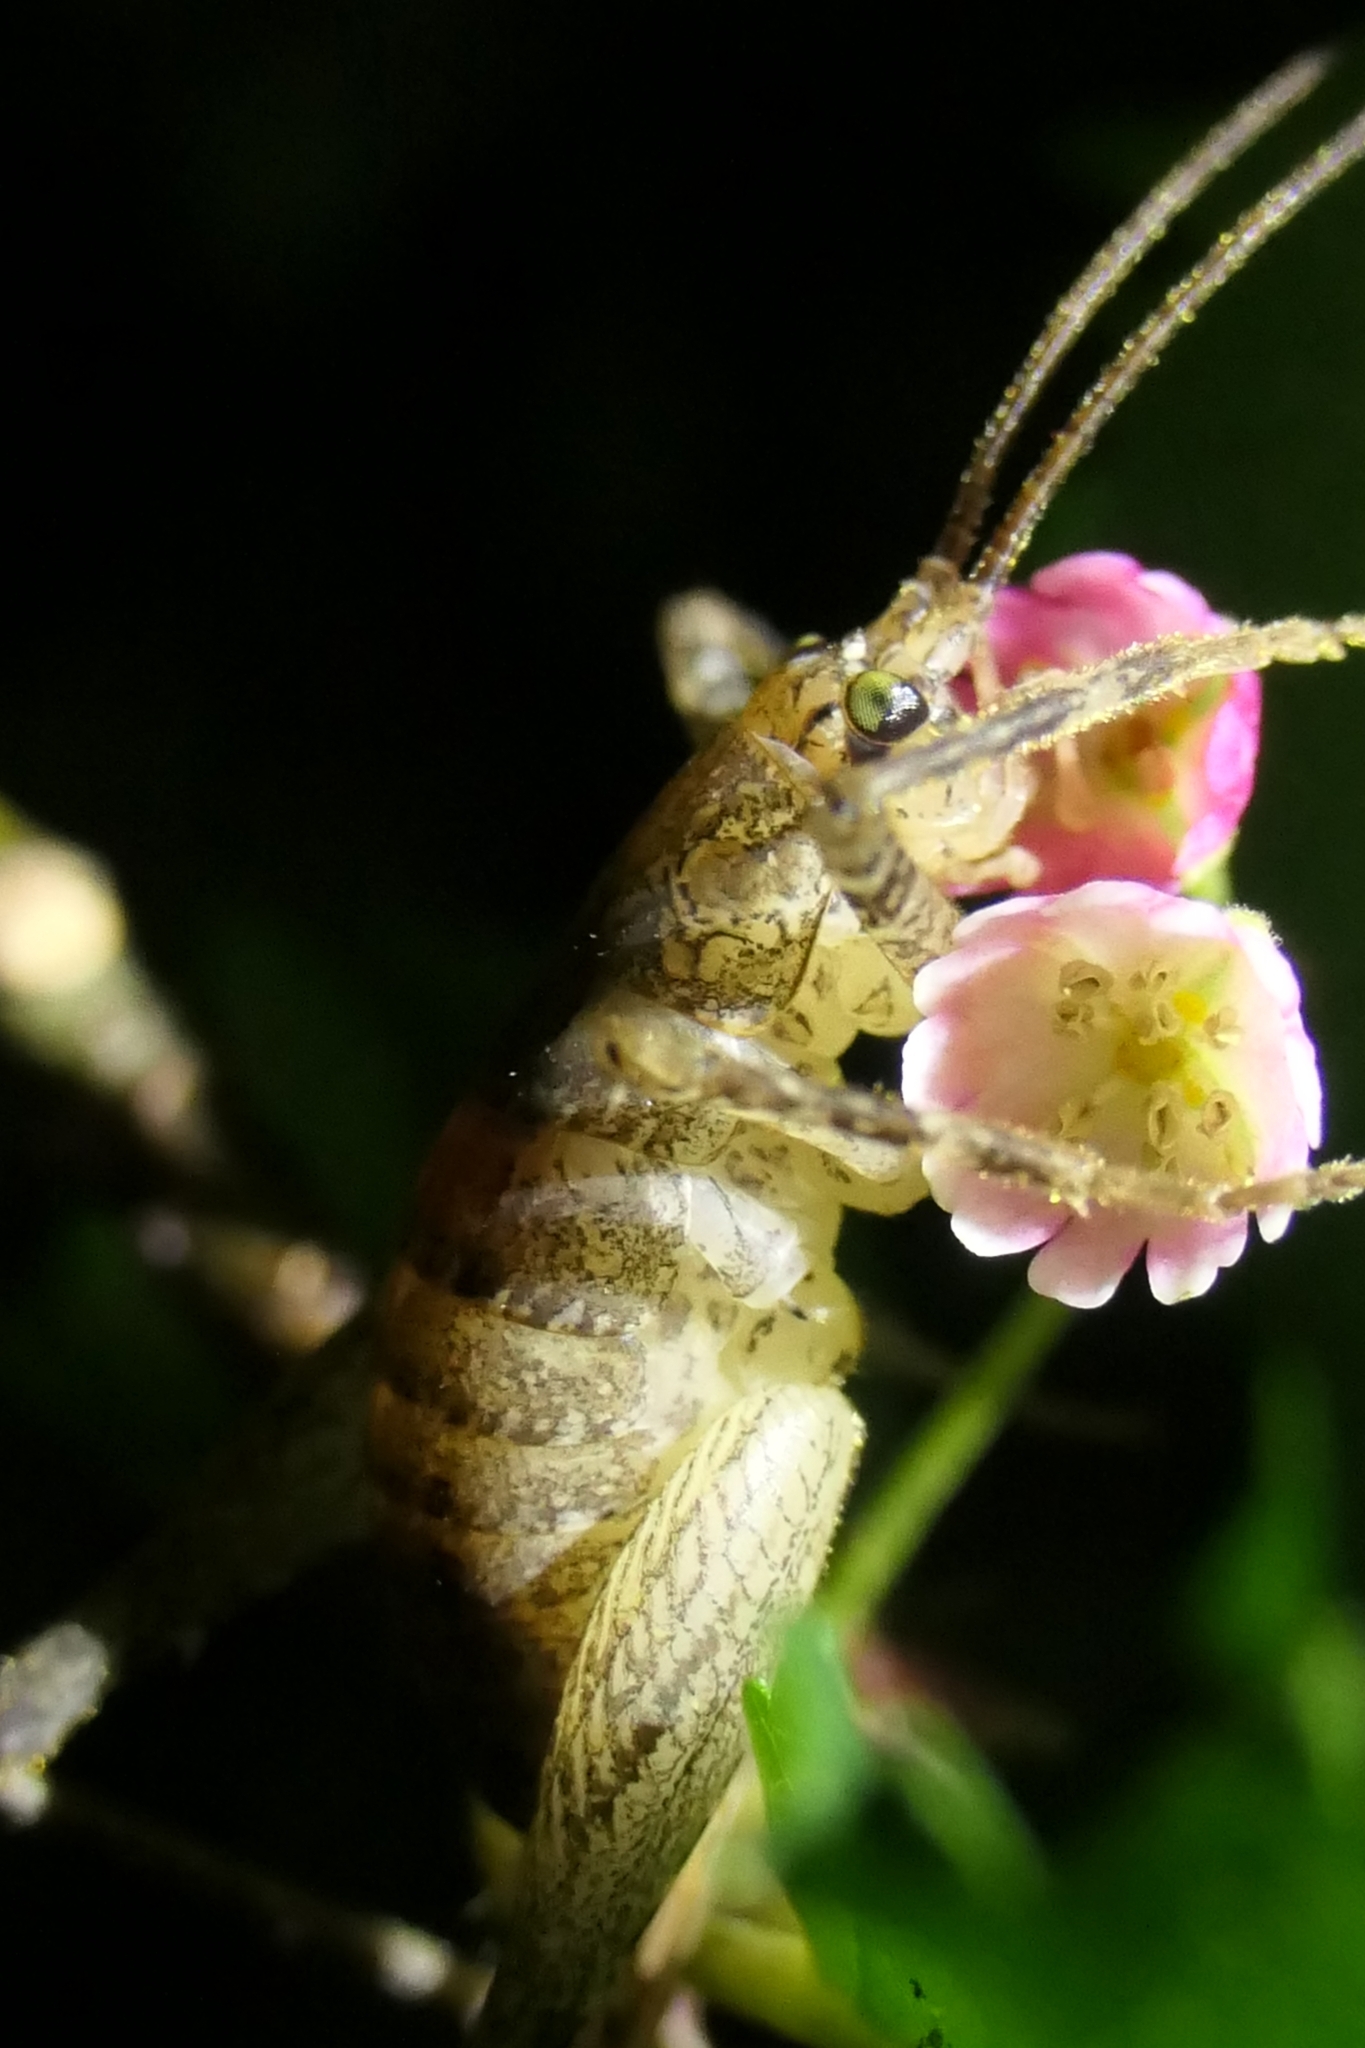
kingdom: Animalia
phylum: Arthropoda
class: Insecta
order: Orthoptera
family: Rhaphidophoridae
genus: Isoplectron
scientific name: Isoplectron armatum
